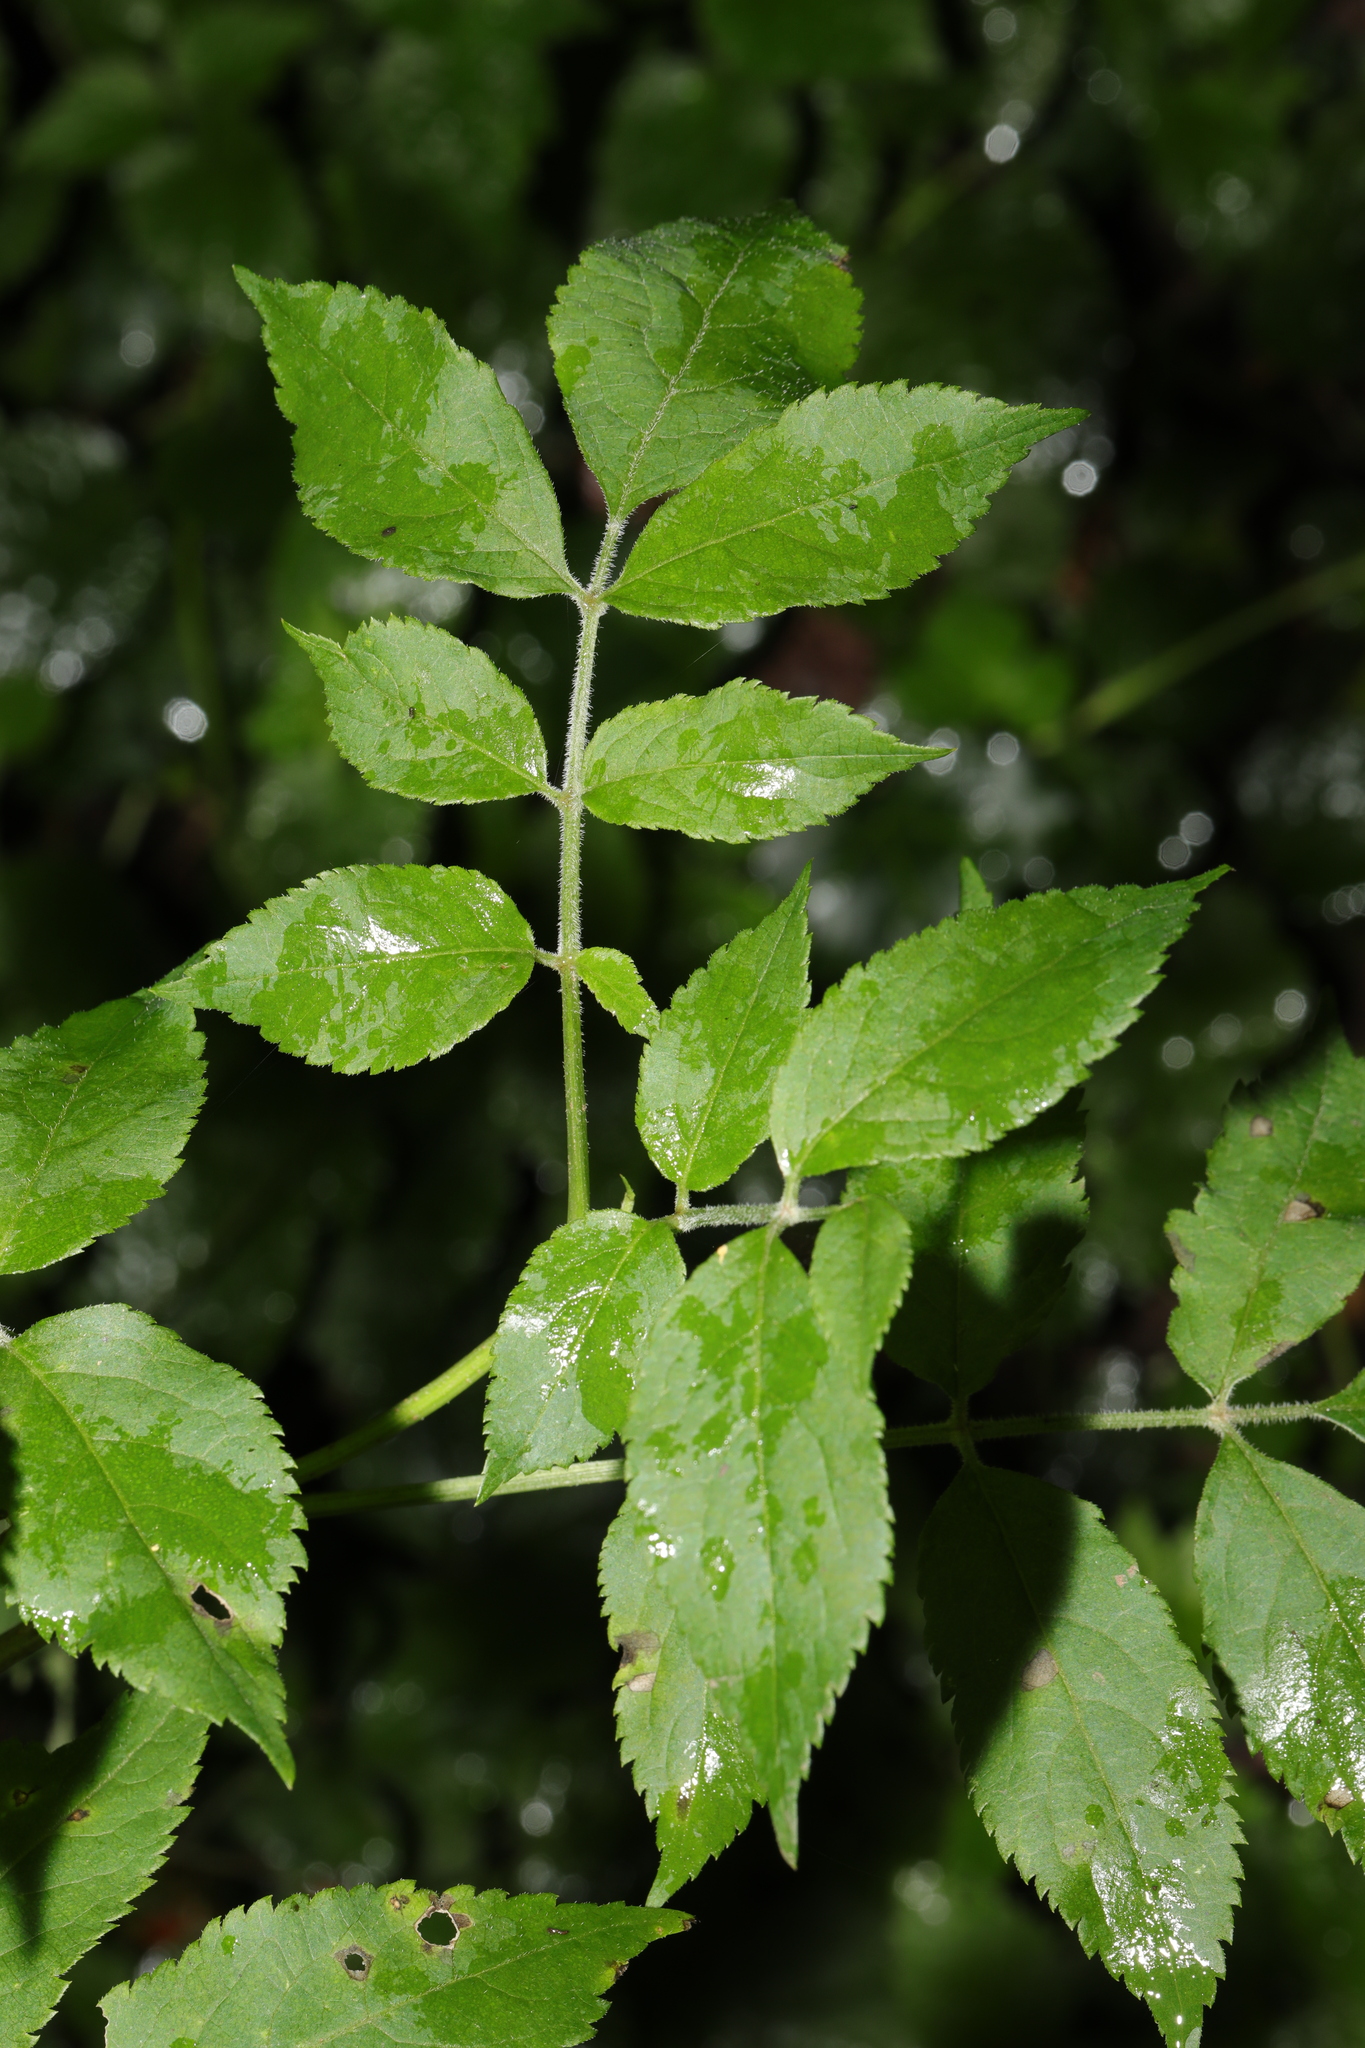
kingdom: Plantae
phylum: Tracheophyta
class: Magnoliopsida
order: Dipsacales
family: Viburnaceae
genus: Sambucus
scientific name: Sambucus nigra
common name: Elder
